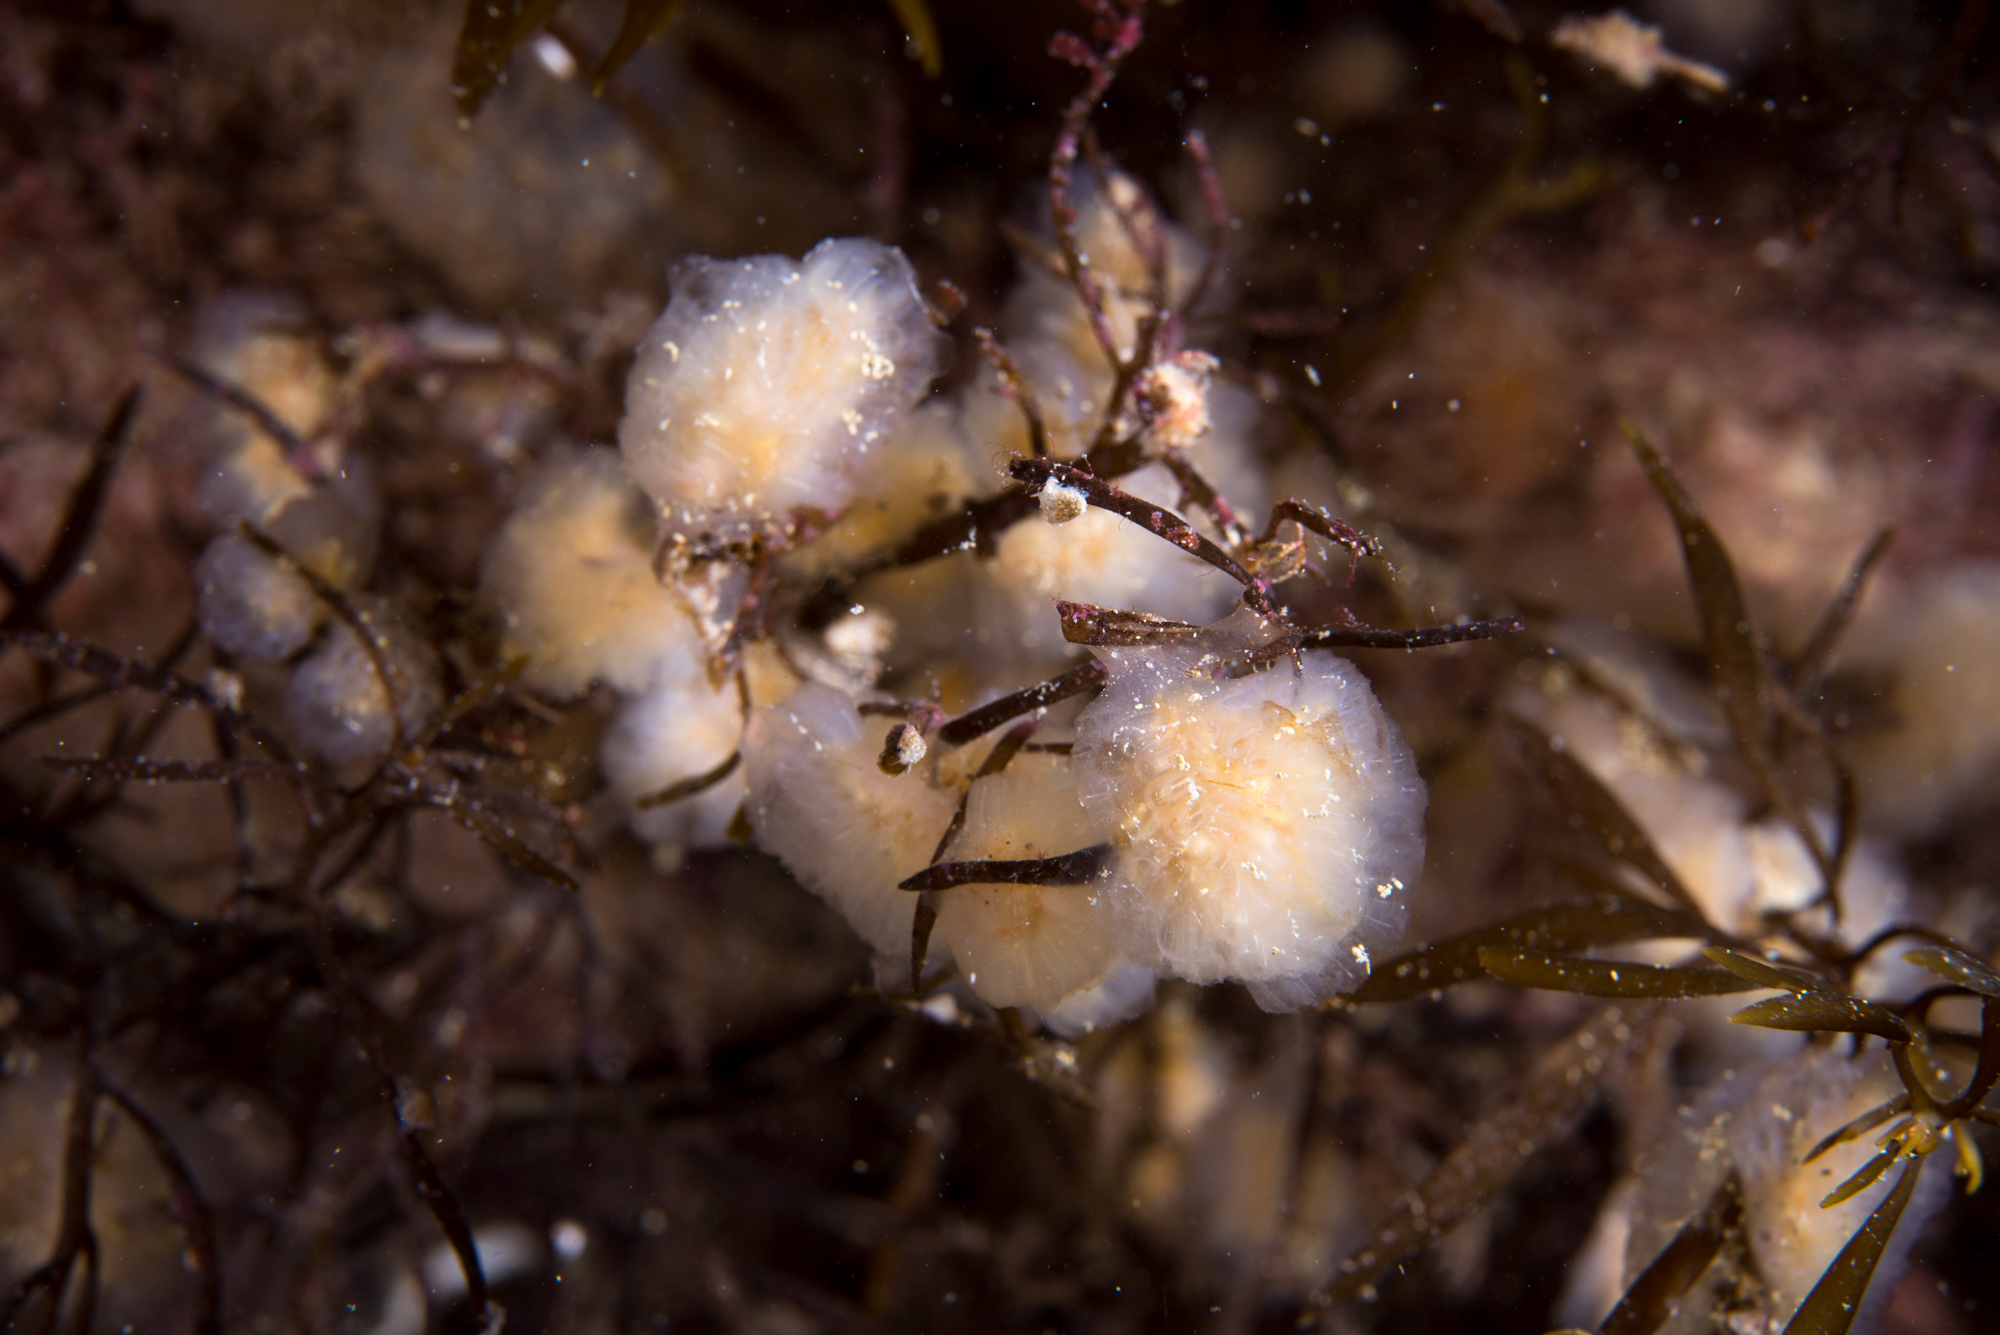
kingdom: Animalia
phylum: Chordata
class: Ascidiacea
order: Aplousobranchia
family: Polyclinidae
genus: Aplidium
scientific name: Aplidium pallidum
